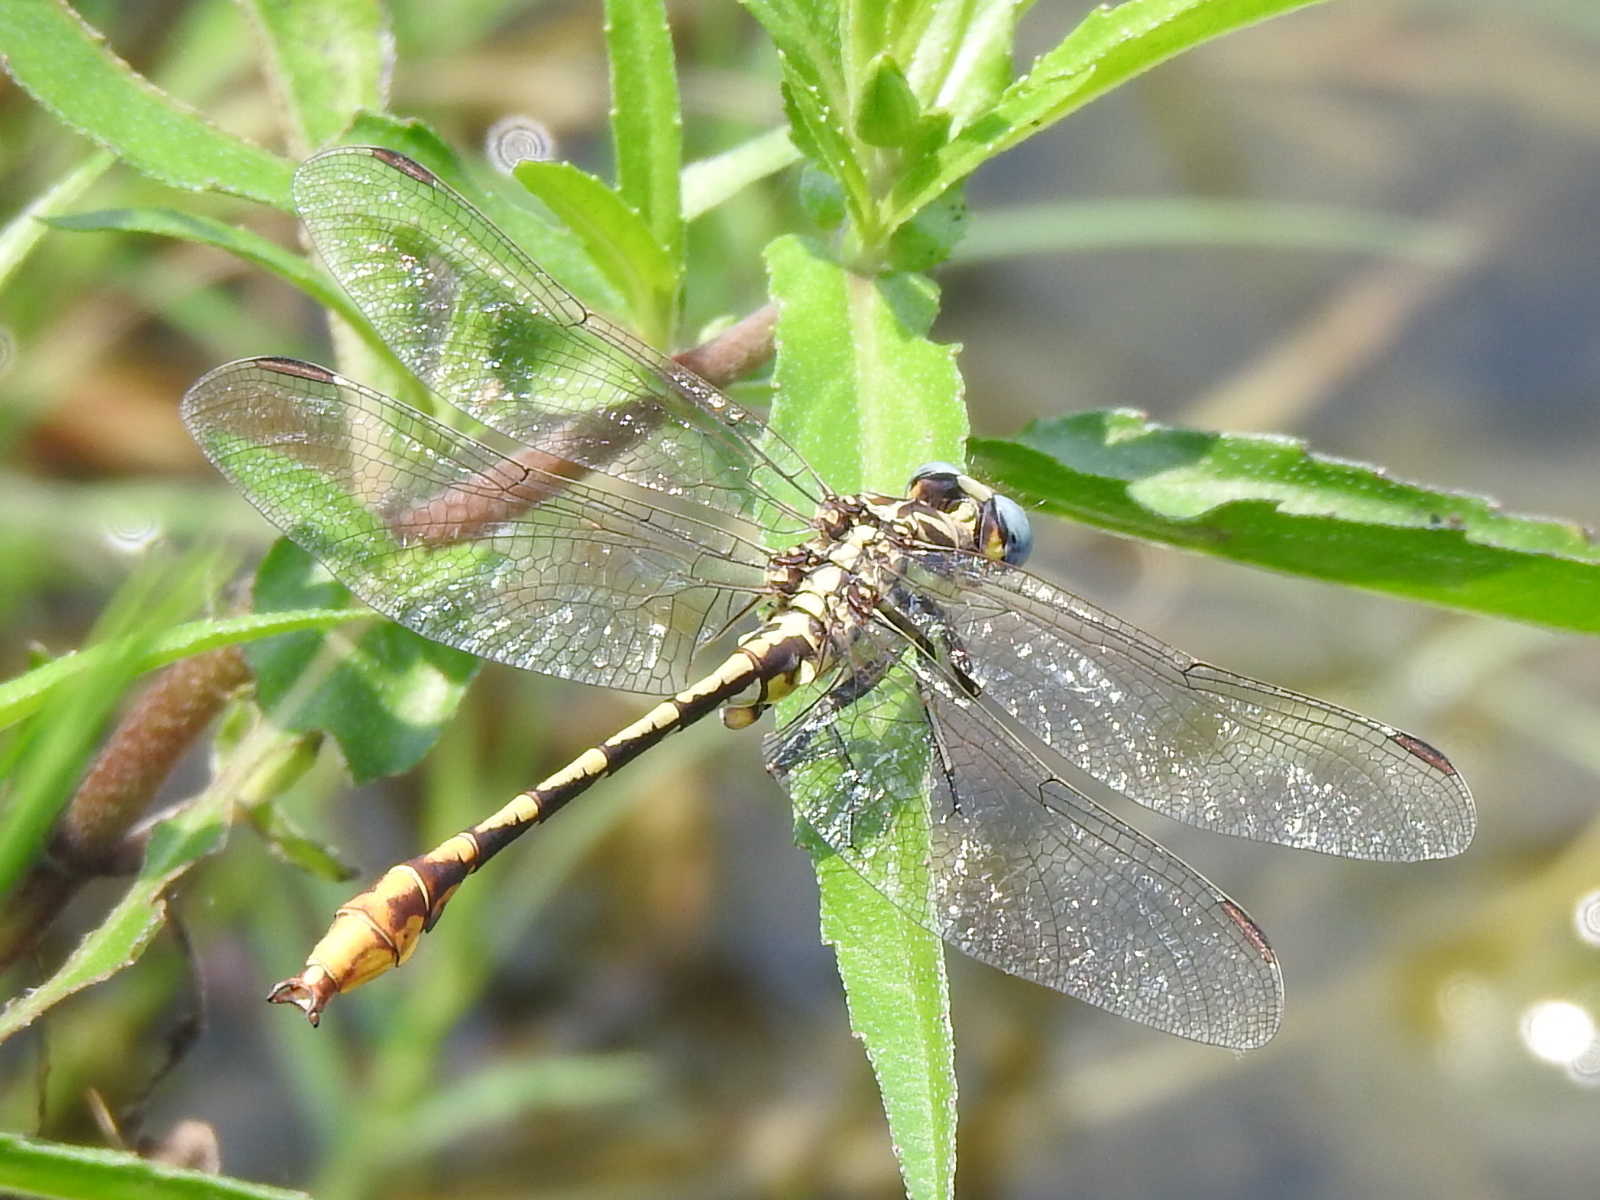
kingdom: Animalia
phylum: Arthropoda
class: Insecta
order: Odonata
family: Gomphidae
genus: Phanogomphus
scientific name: Phanogomphus militaris
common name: Sulphur-tipped clubtail
